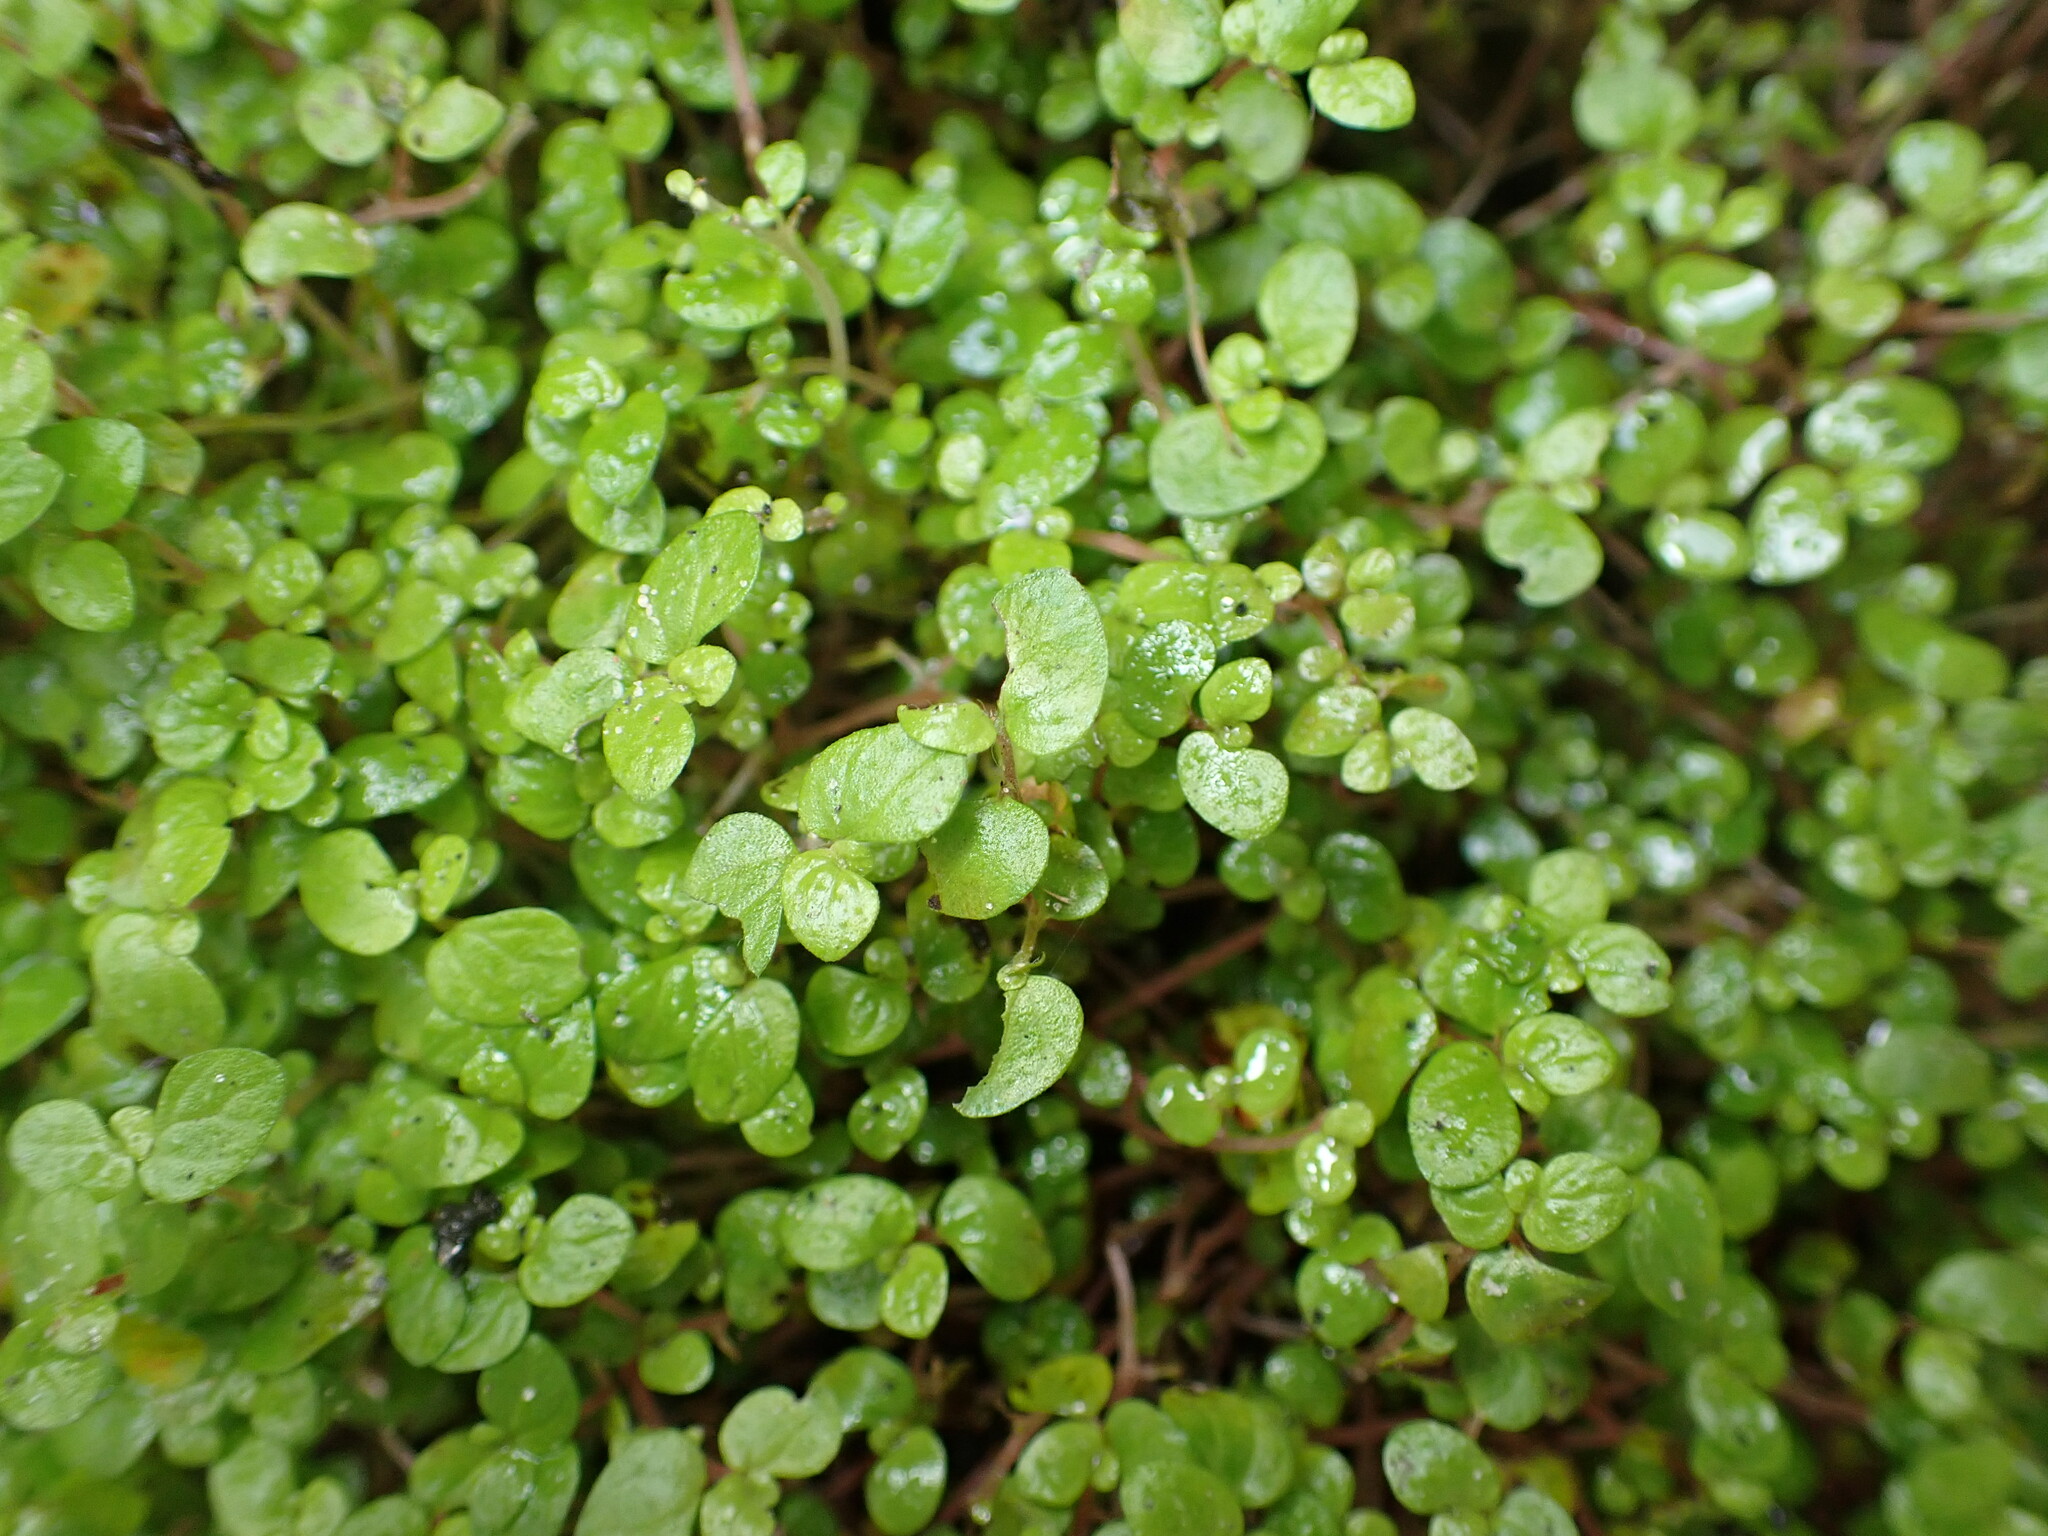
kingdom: Plantae
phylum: Tracheophyta
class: Magnoliopsida
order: Rosales
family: Urticaceae
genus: Soleirolia
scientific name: Soleirolia soleirolii
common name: Mind-your-own-business
